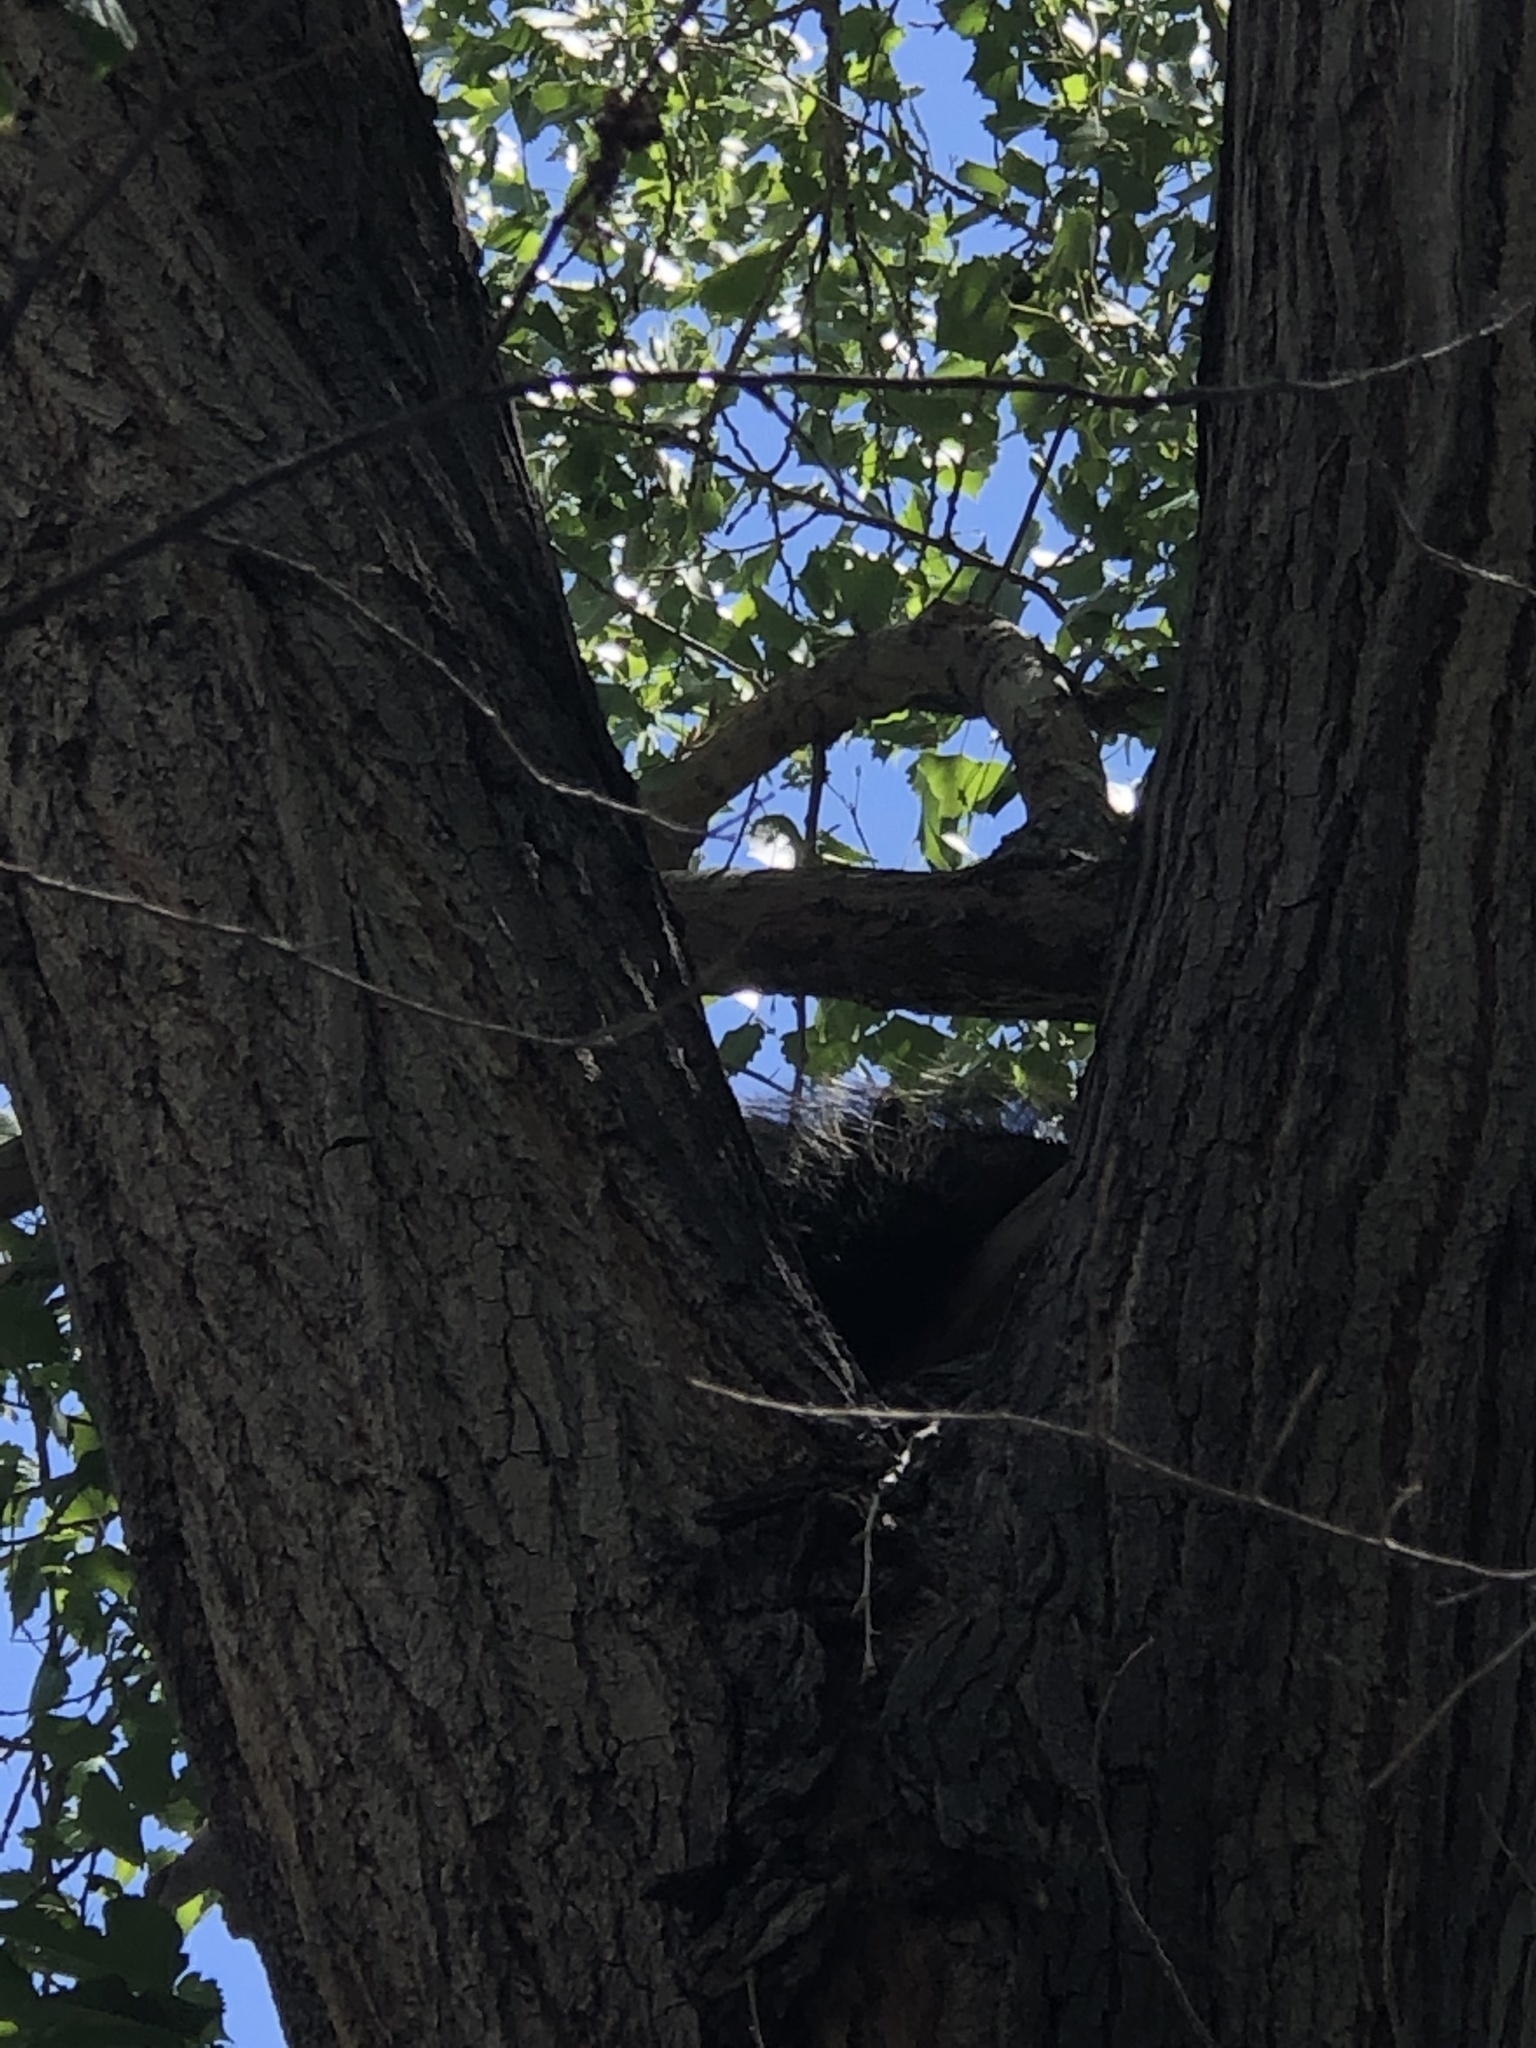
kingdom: Animalia
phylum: Chordata
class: Mammalia
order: Rodentia
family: Erethizontidae
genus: Erethizon
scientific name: Erethizon dorsatus
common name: North american porcupine
